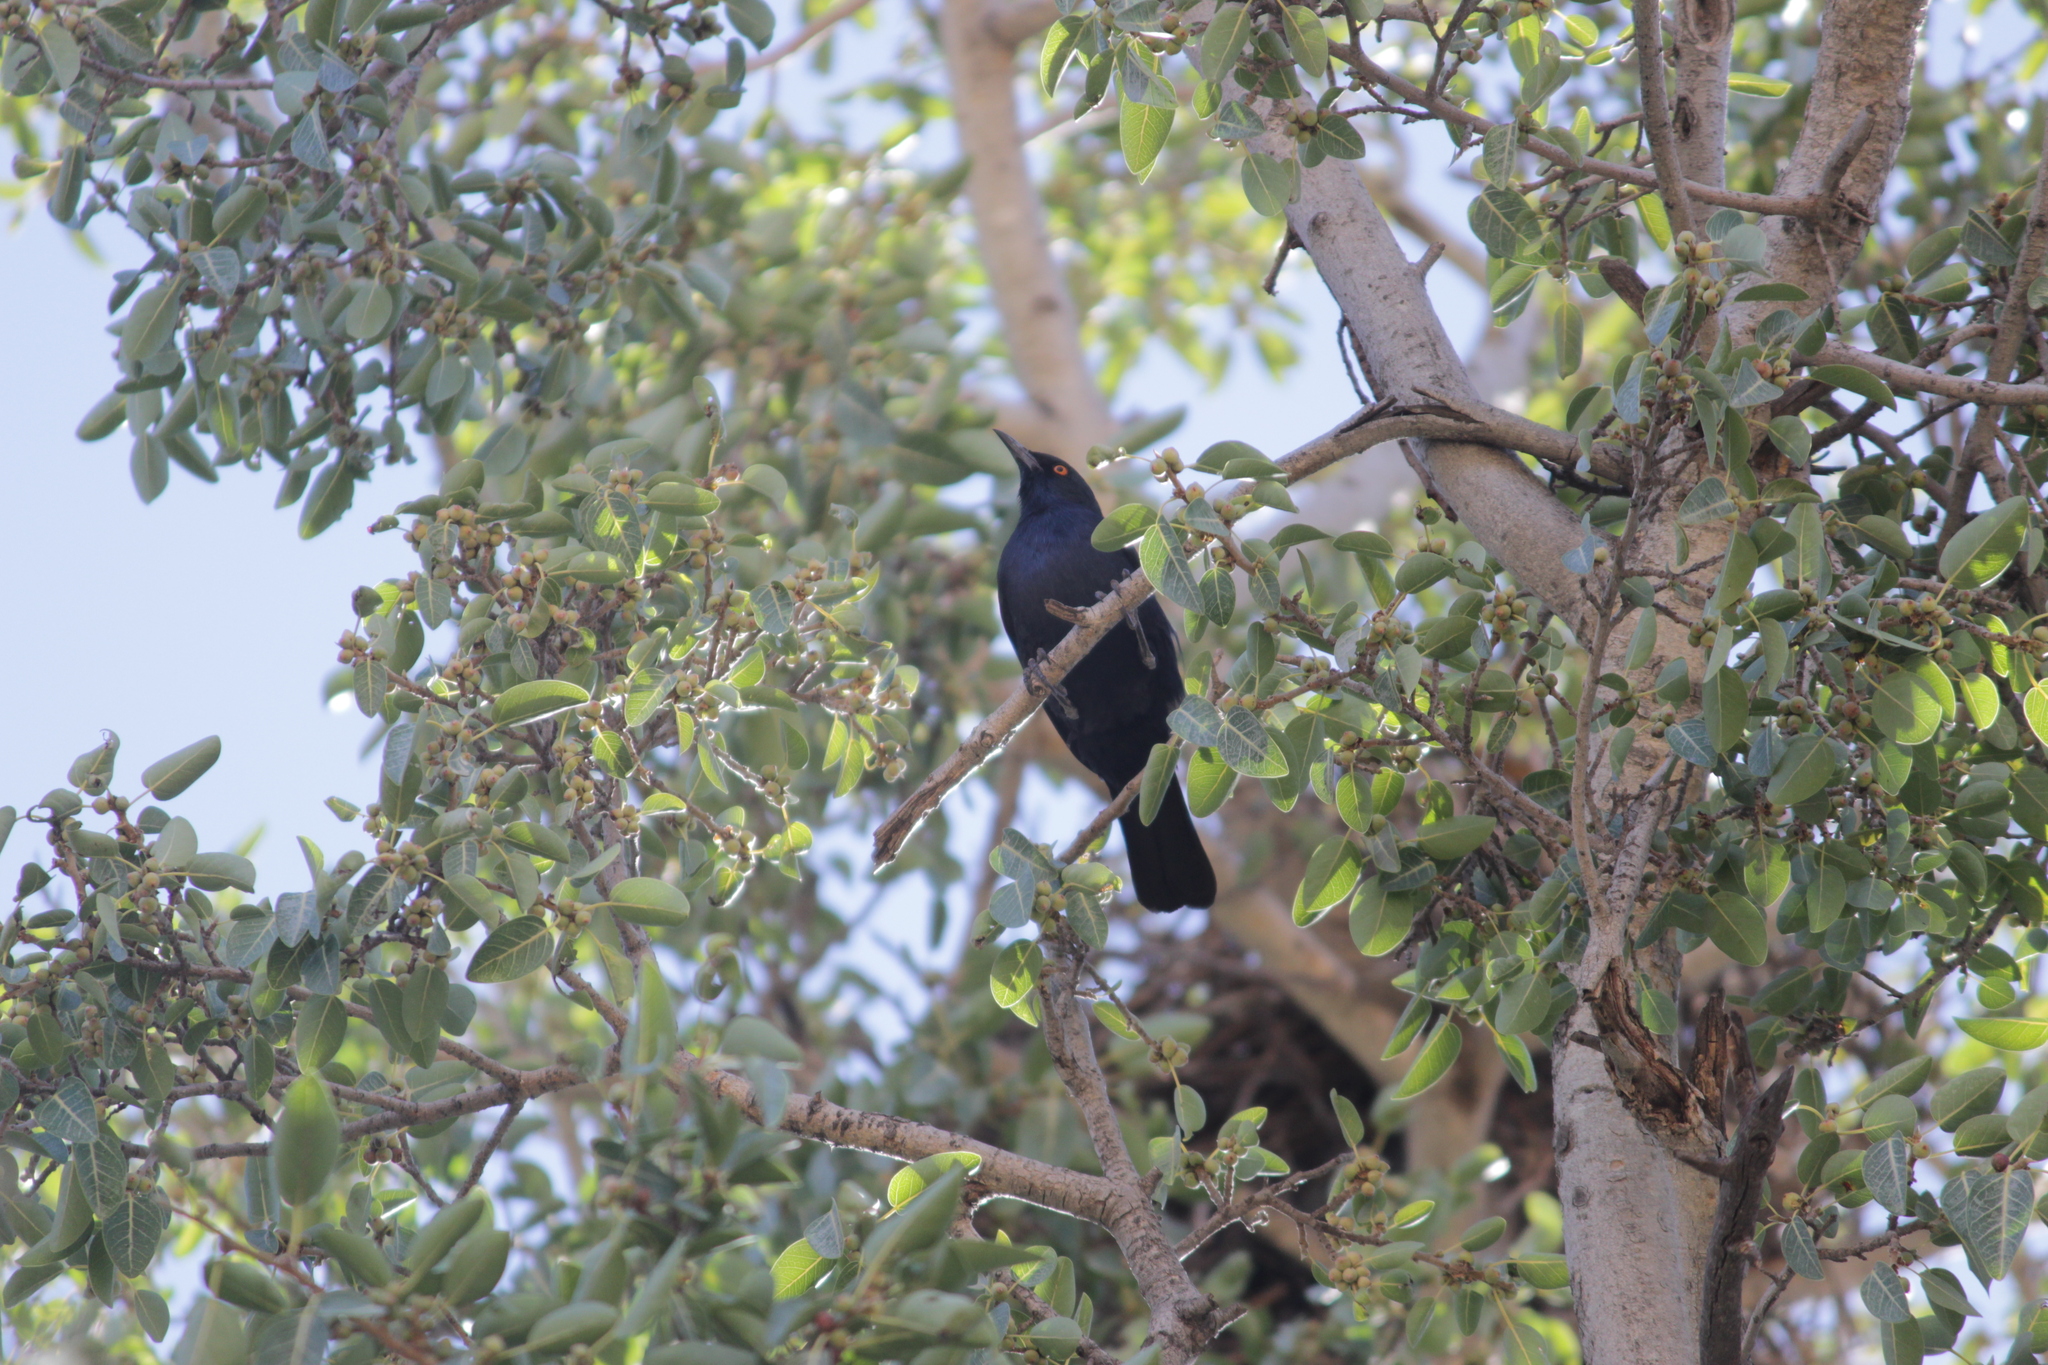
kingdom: Animalia
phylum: Chordata
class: Aves
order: Passeriformes
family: Sturnidae
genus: Onychognathus
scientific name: Onychognathus nabouroup
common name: Pale-winged starling
